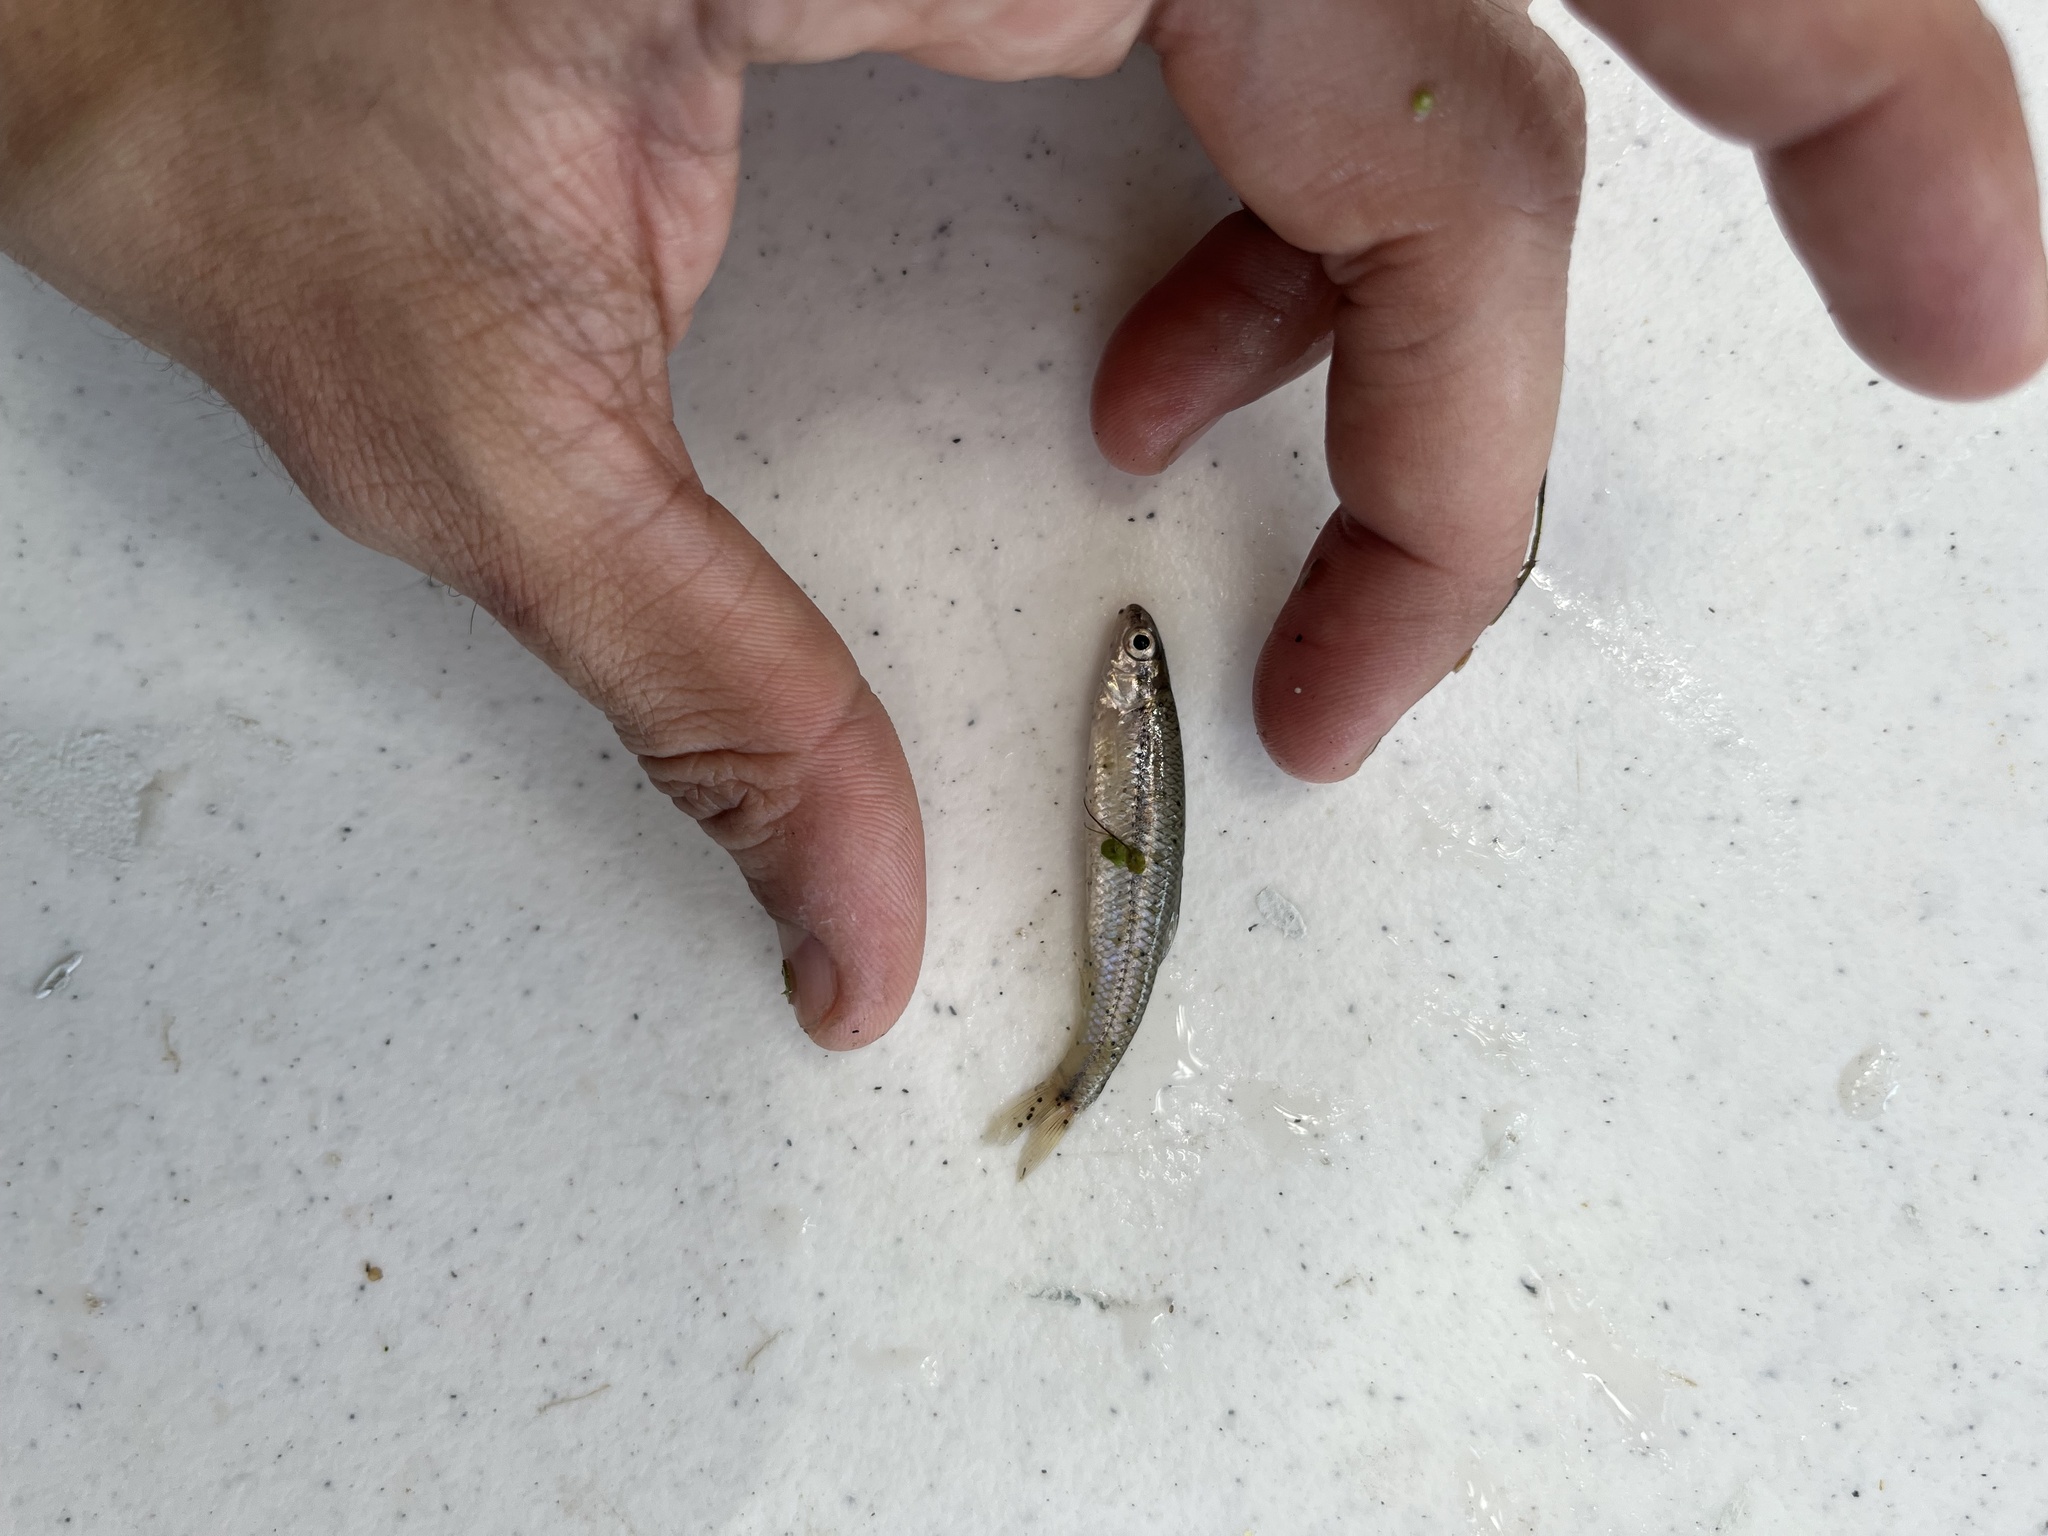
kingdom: Animalia
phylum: Chordata
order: Cypriniformes
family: Cyprinidae
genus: Pimephales
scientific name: Pimephales notatus
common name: Bluntnose minnow
